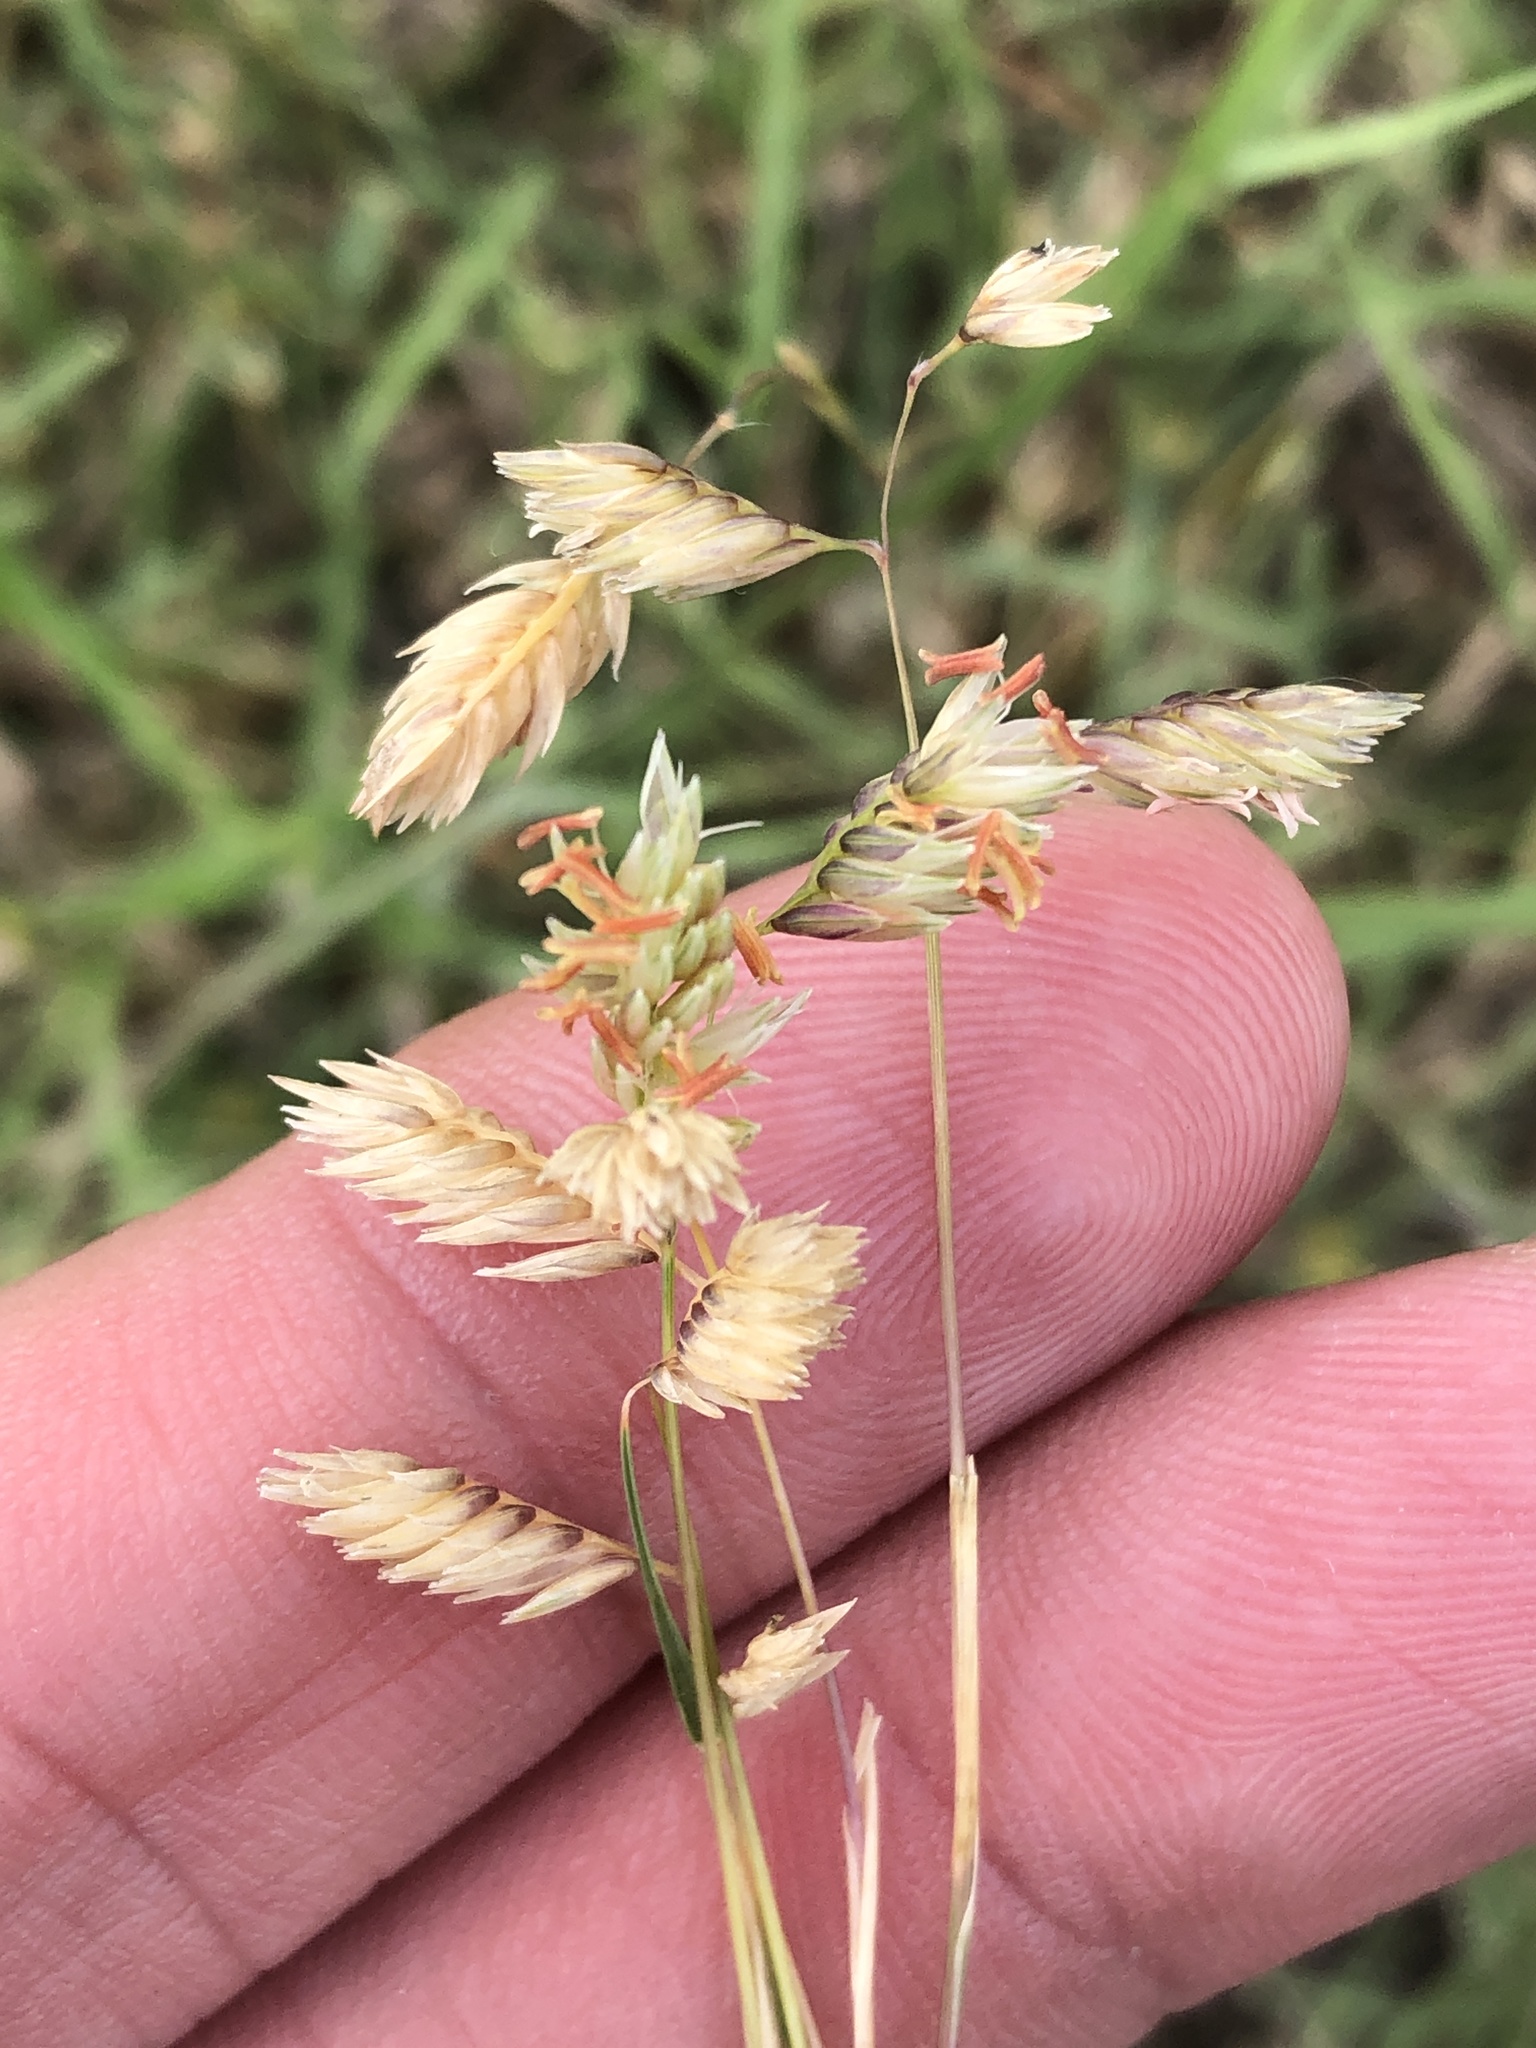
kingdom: Plantae
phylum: Tracheophyta
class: Liliopsida
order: Poales
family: Poaceae
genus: Bouteloua
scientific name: Bouteloua dactyloides
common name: Buffalo grass
